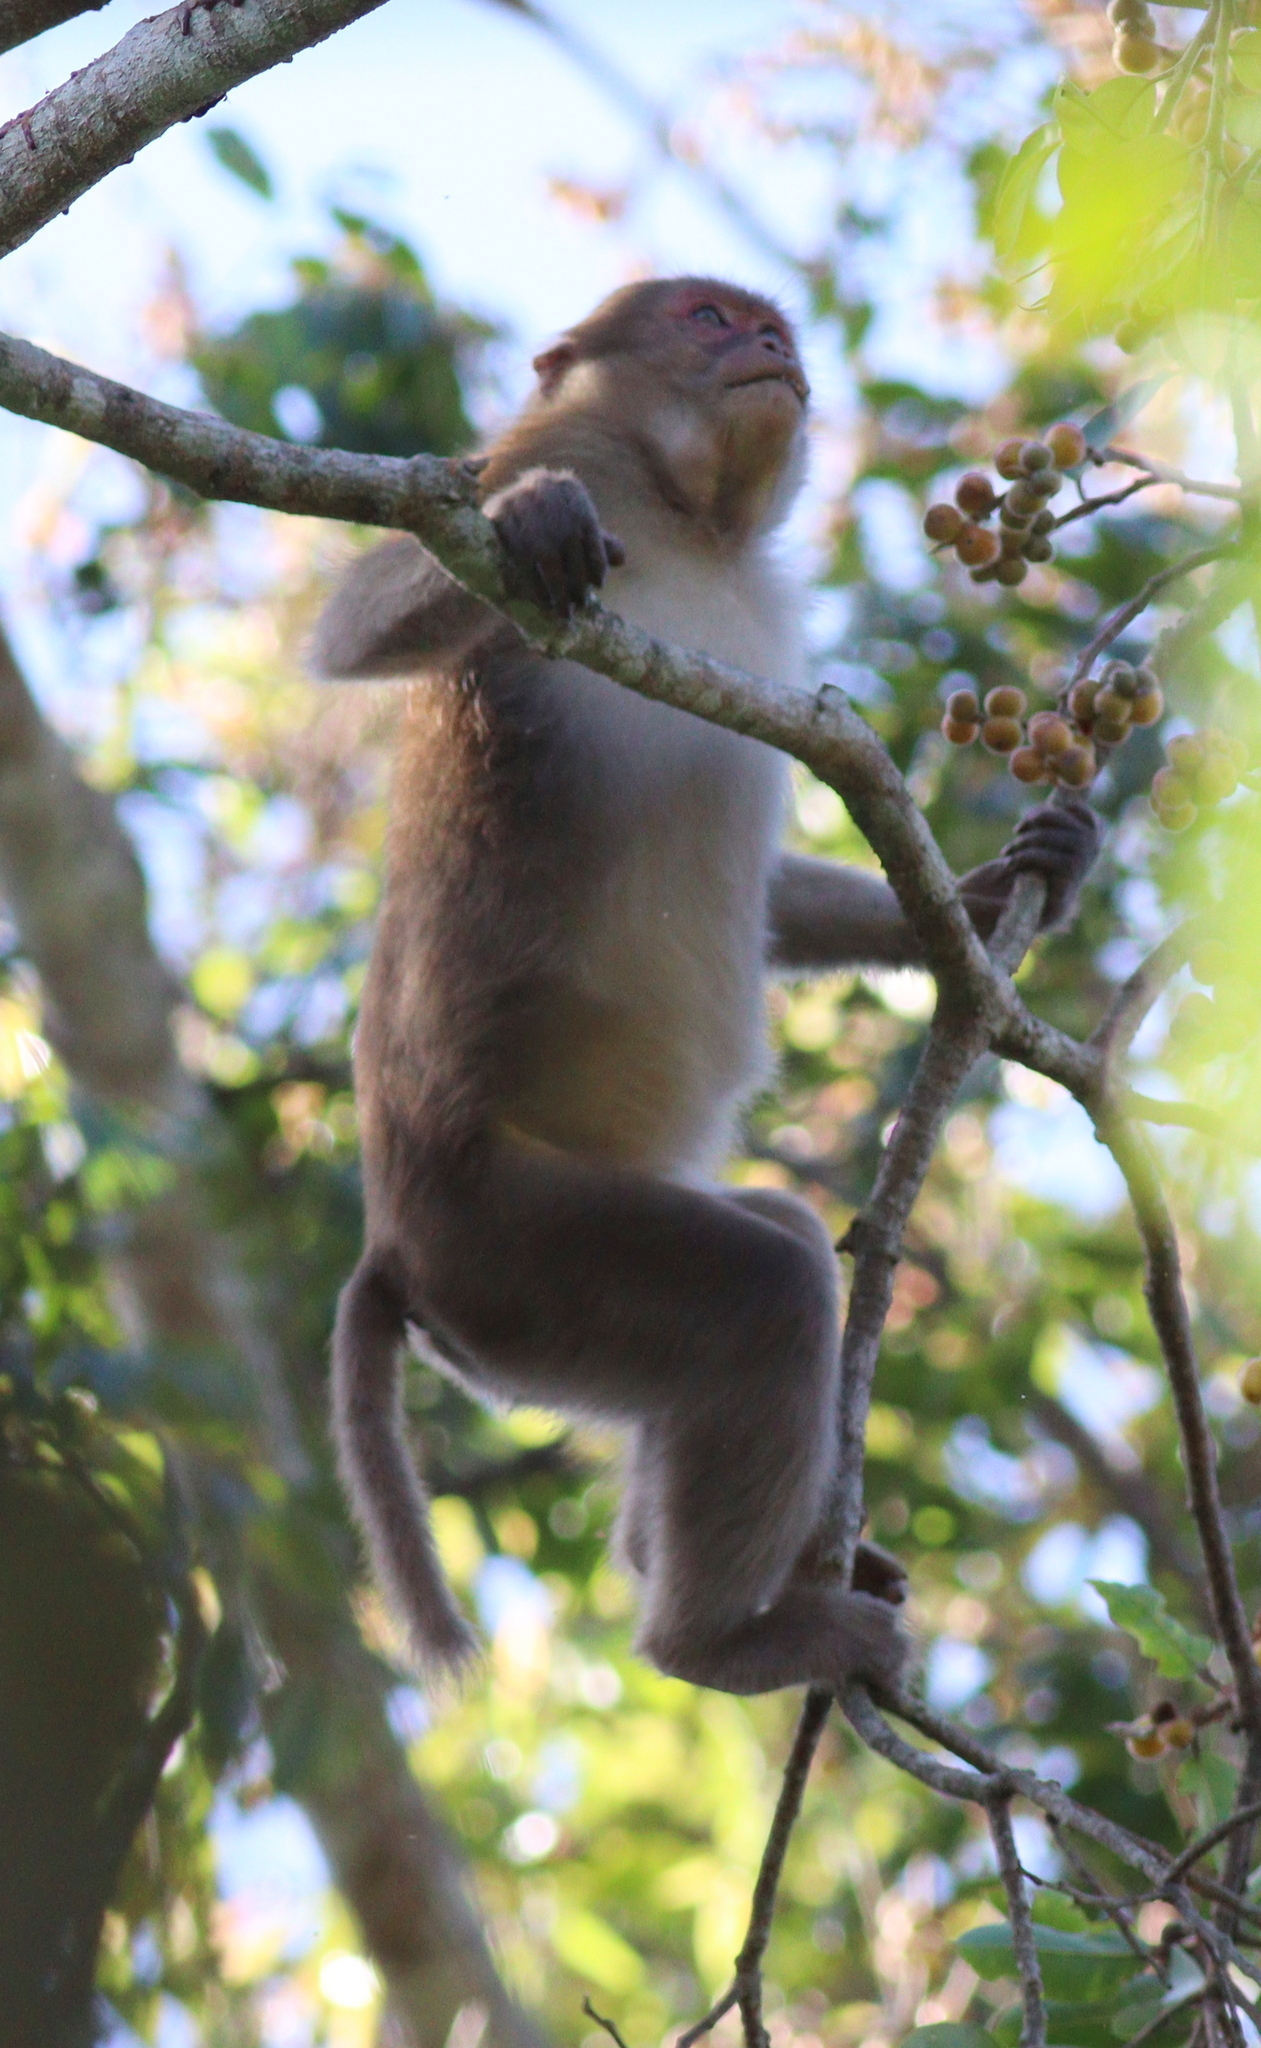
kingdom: Animalia
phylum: Chordata
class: Mammalia
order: Primates
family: Cercopithecidae
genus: Macaca
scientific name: Macaca assamensis
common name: Assam macaque
